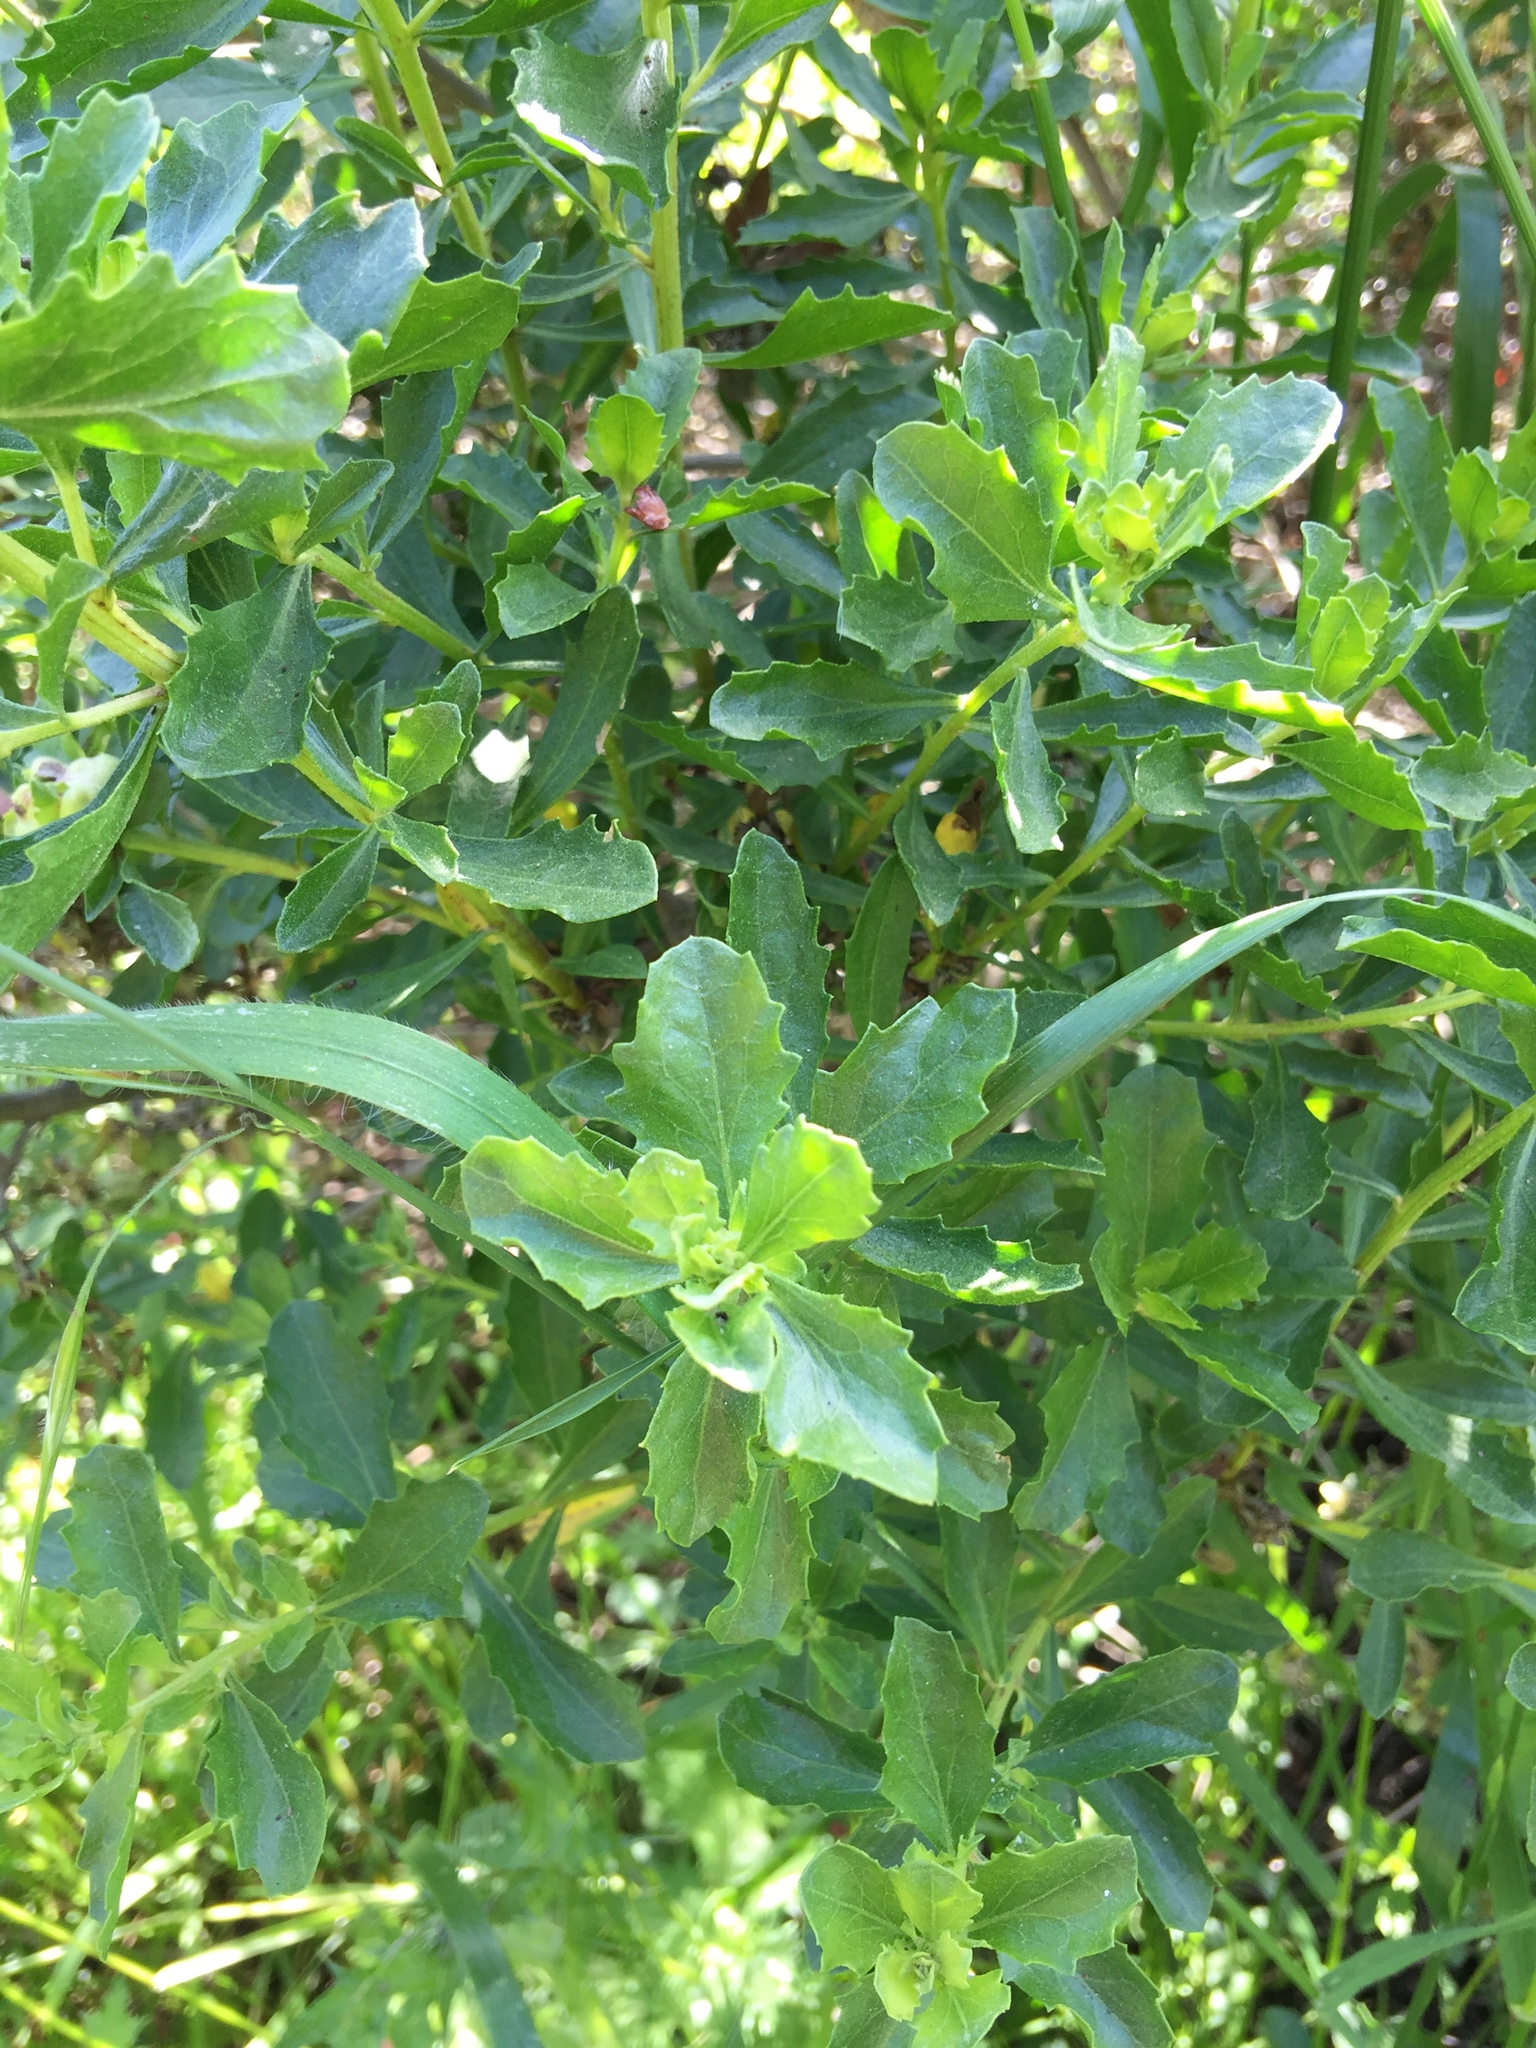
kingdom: Plantae
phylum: Tracheophyta
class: Magnoliopsida
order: Asterales
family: Asteraceae
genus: Baccharis
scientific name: Baccharis pilularis
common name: Coyotebrush
